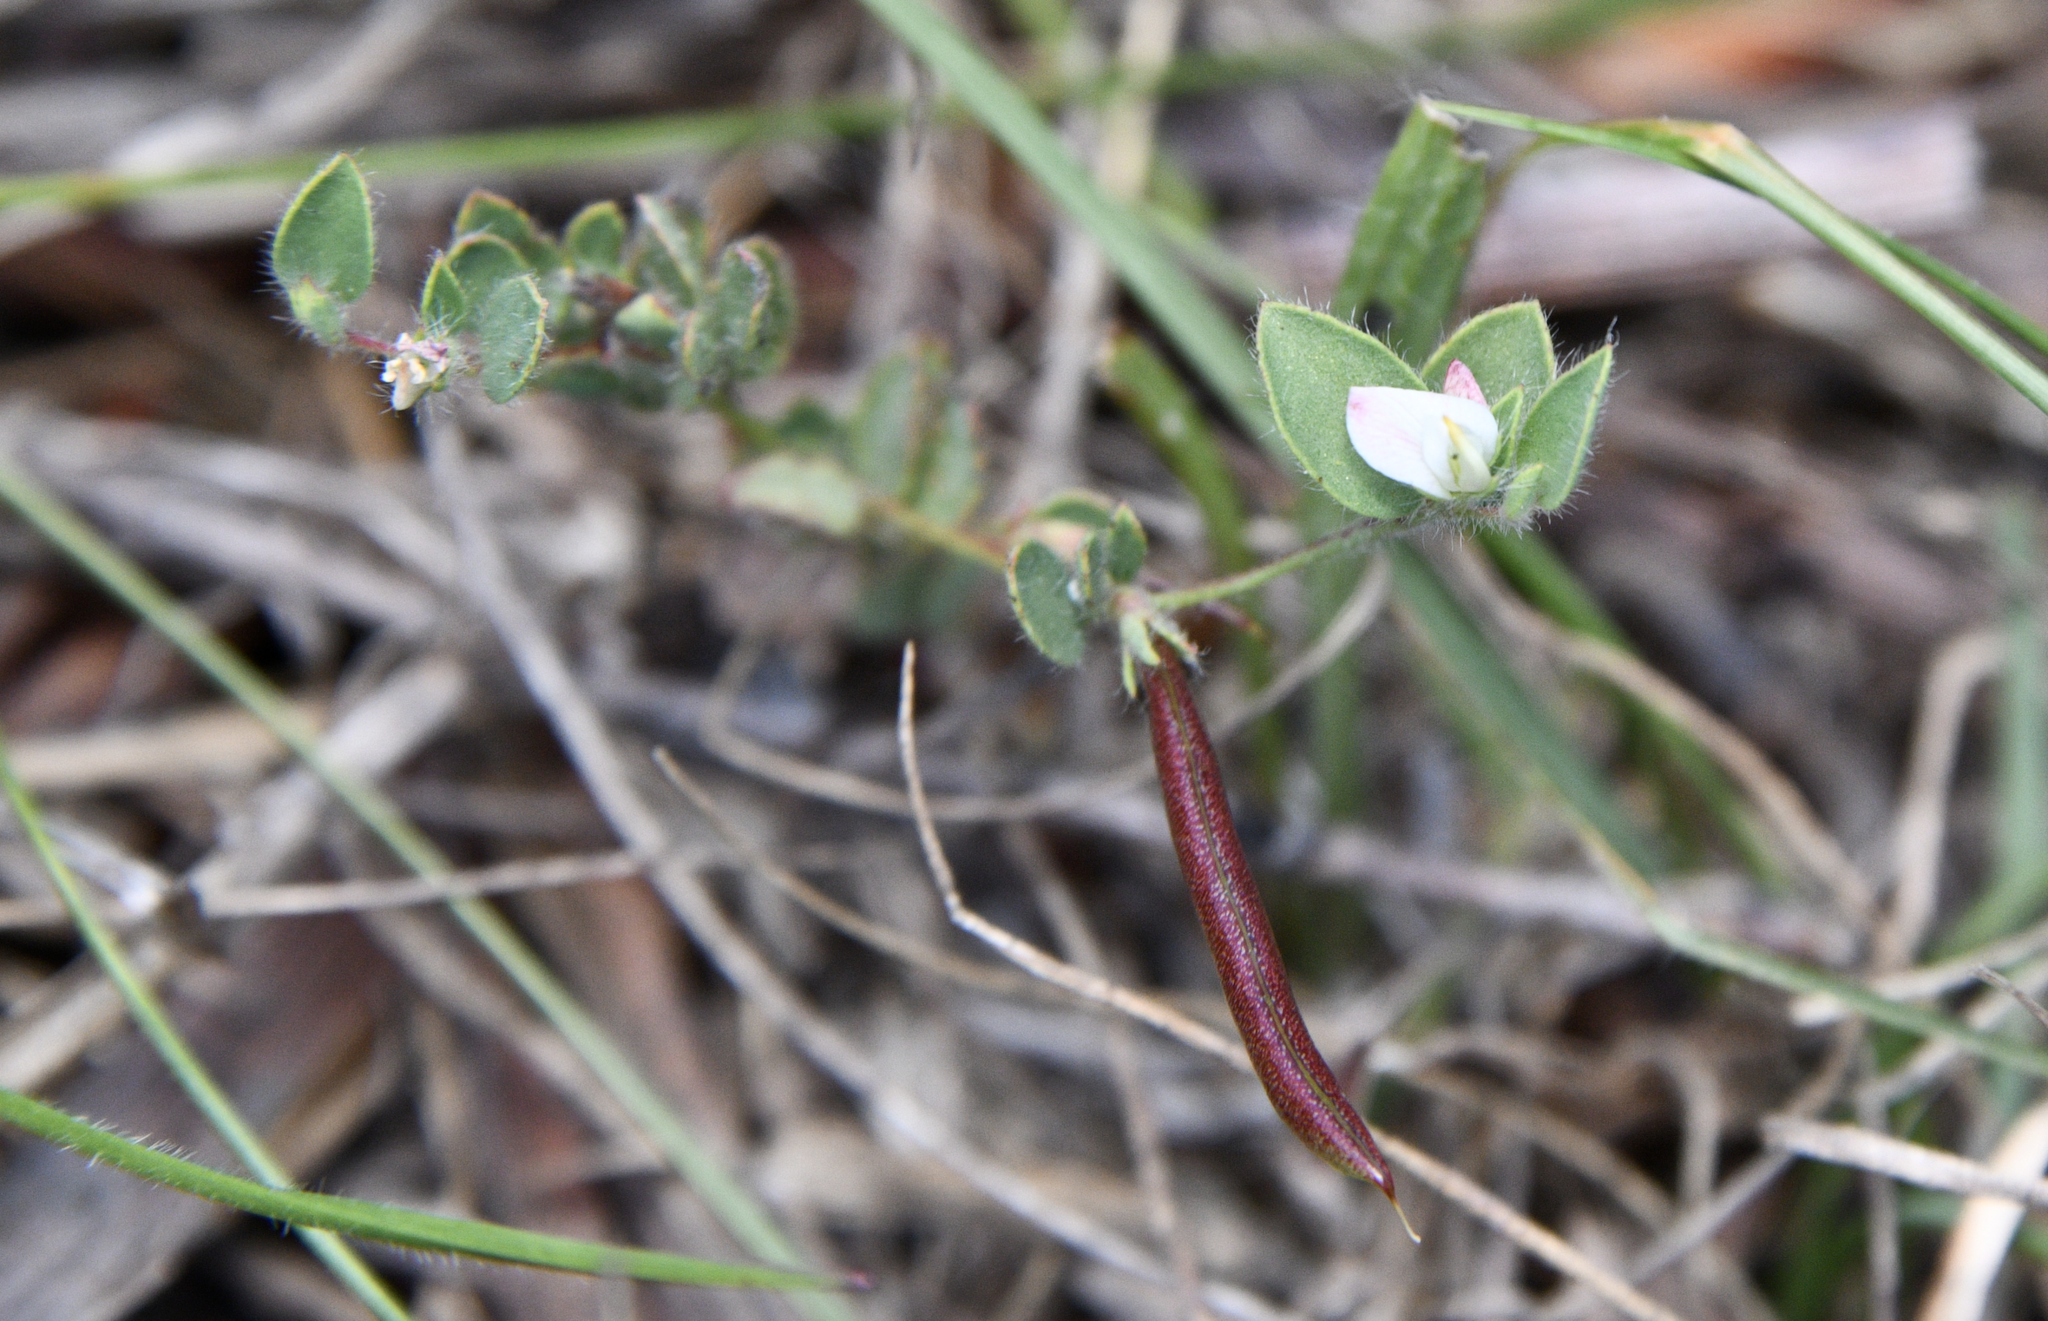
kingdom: Plantae
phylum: Tracheophyta
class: Magnoliopsida
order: Fabales
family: Fabaceae
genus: Acmispon
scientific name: Acmispon americanus
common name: American bird's-foot trefoil
